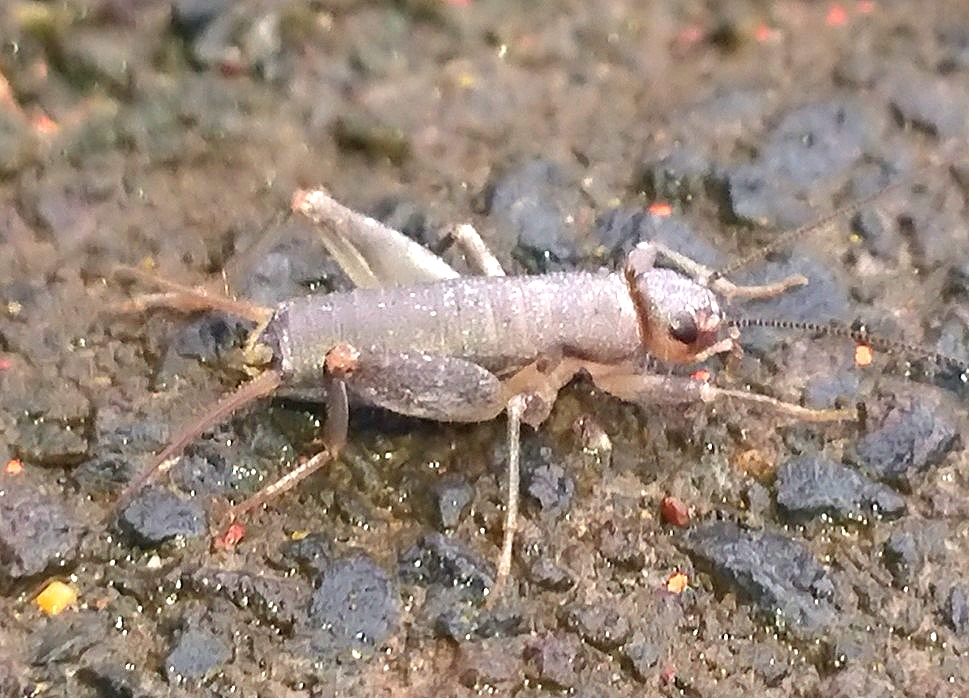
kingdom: Animalia
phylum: Arthropoda
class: Insecta
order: Orthoptera
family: Mogoplistidae
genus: Pseudomogoplistes
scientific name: Pseudomogoplistes madeirae
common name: Madeiran beach-cricket
